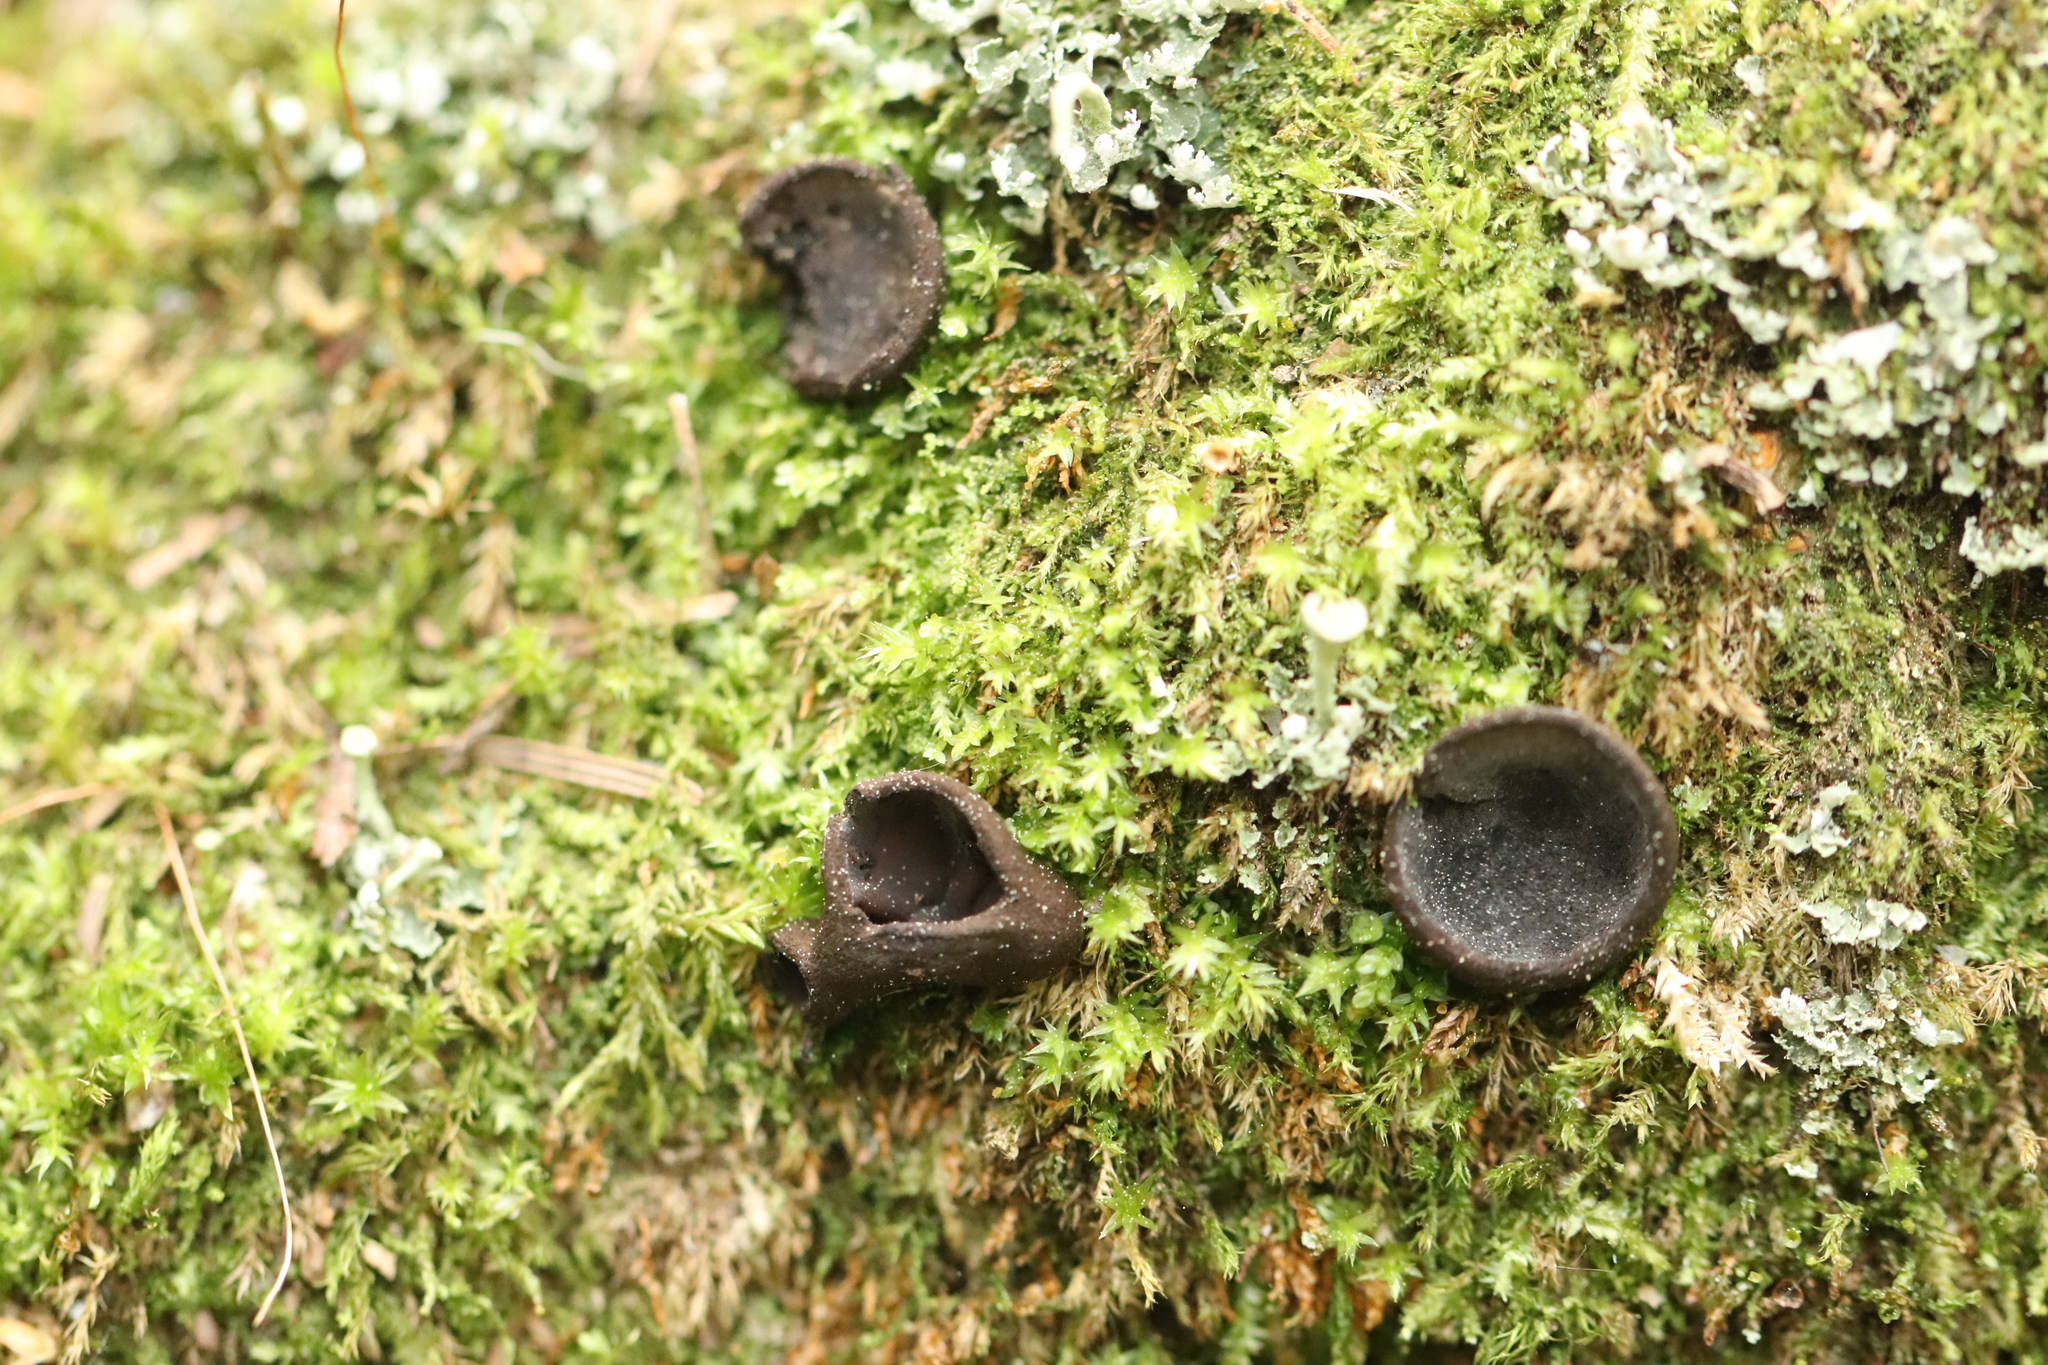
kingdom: Fungi
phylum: Ascomycota
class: Pezizomycetes
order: Pezizales
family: Sarcosomataceae
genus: Pseudoplectania
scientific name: Pseudoplectania nigrella
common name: Ebony cup
